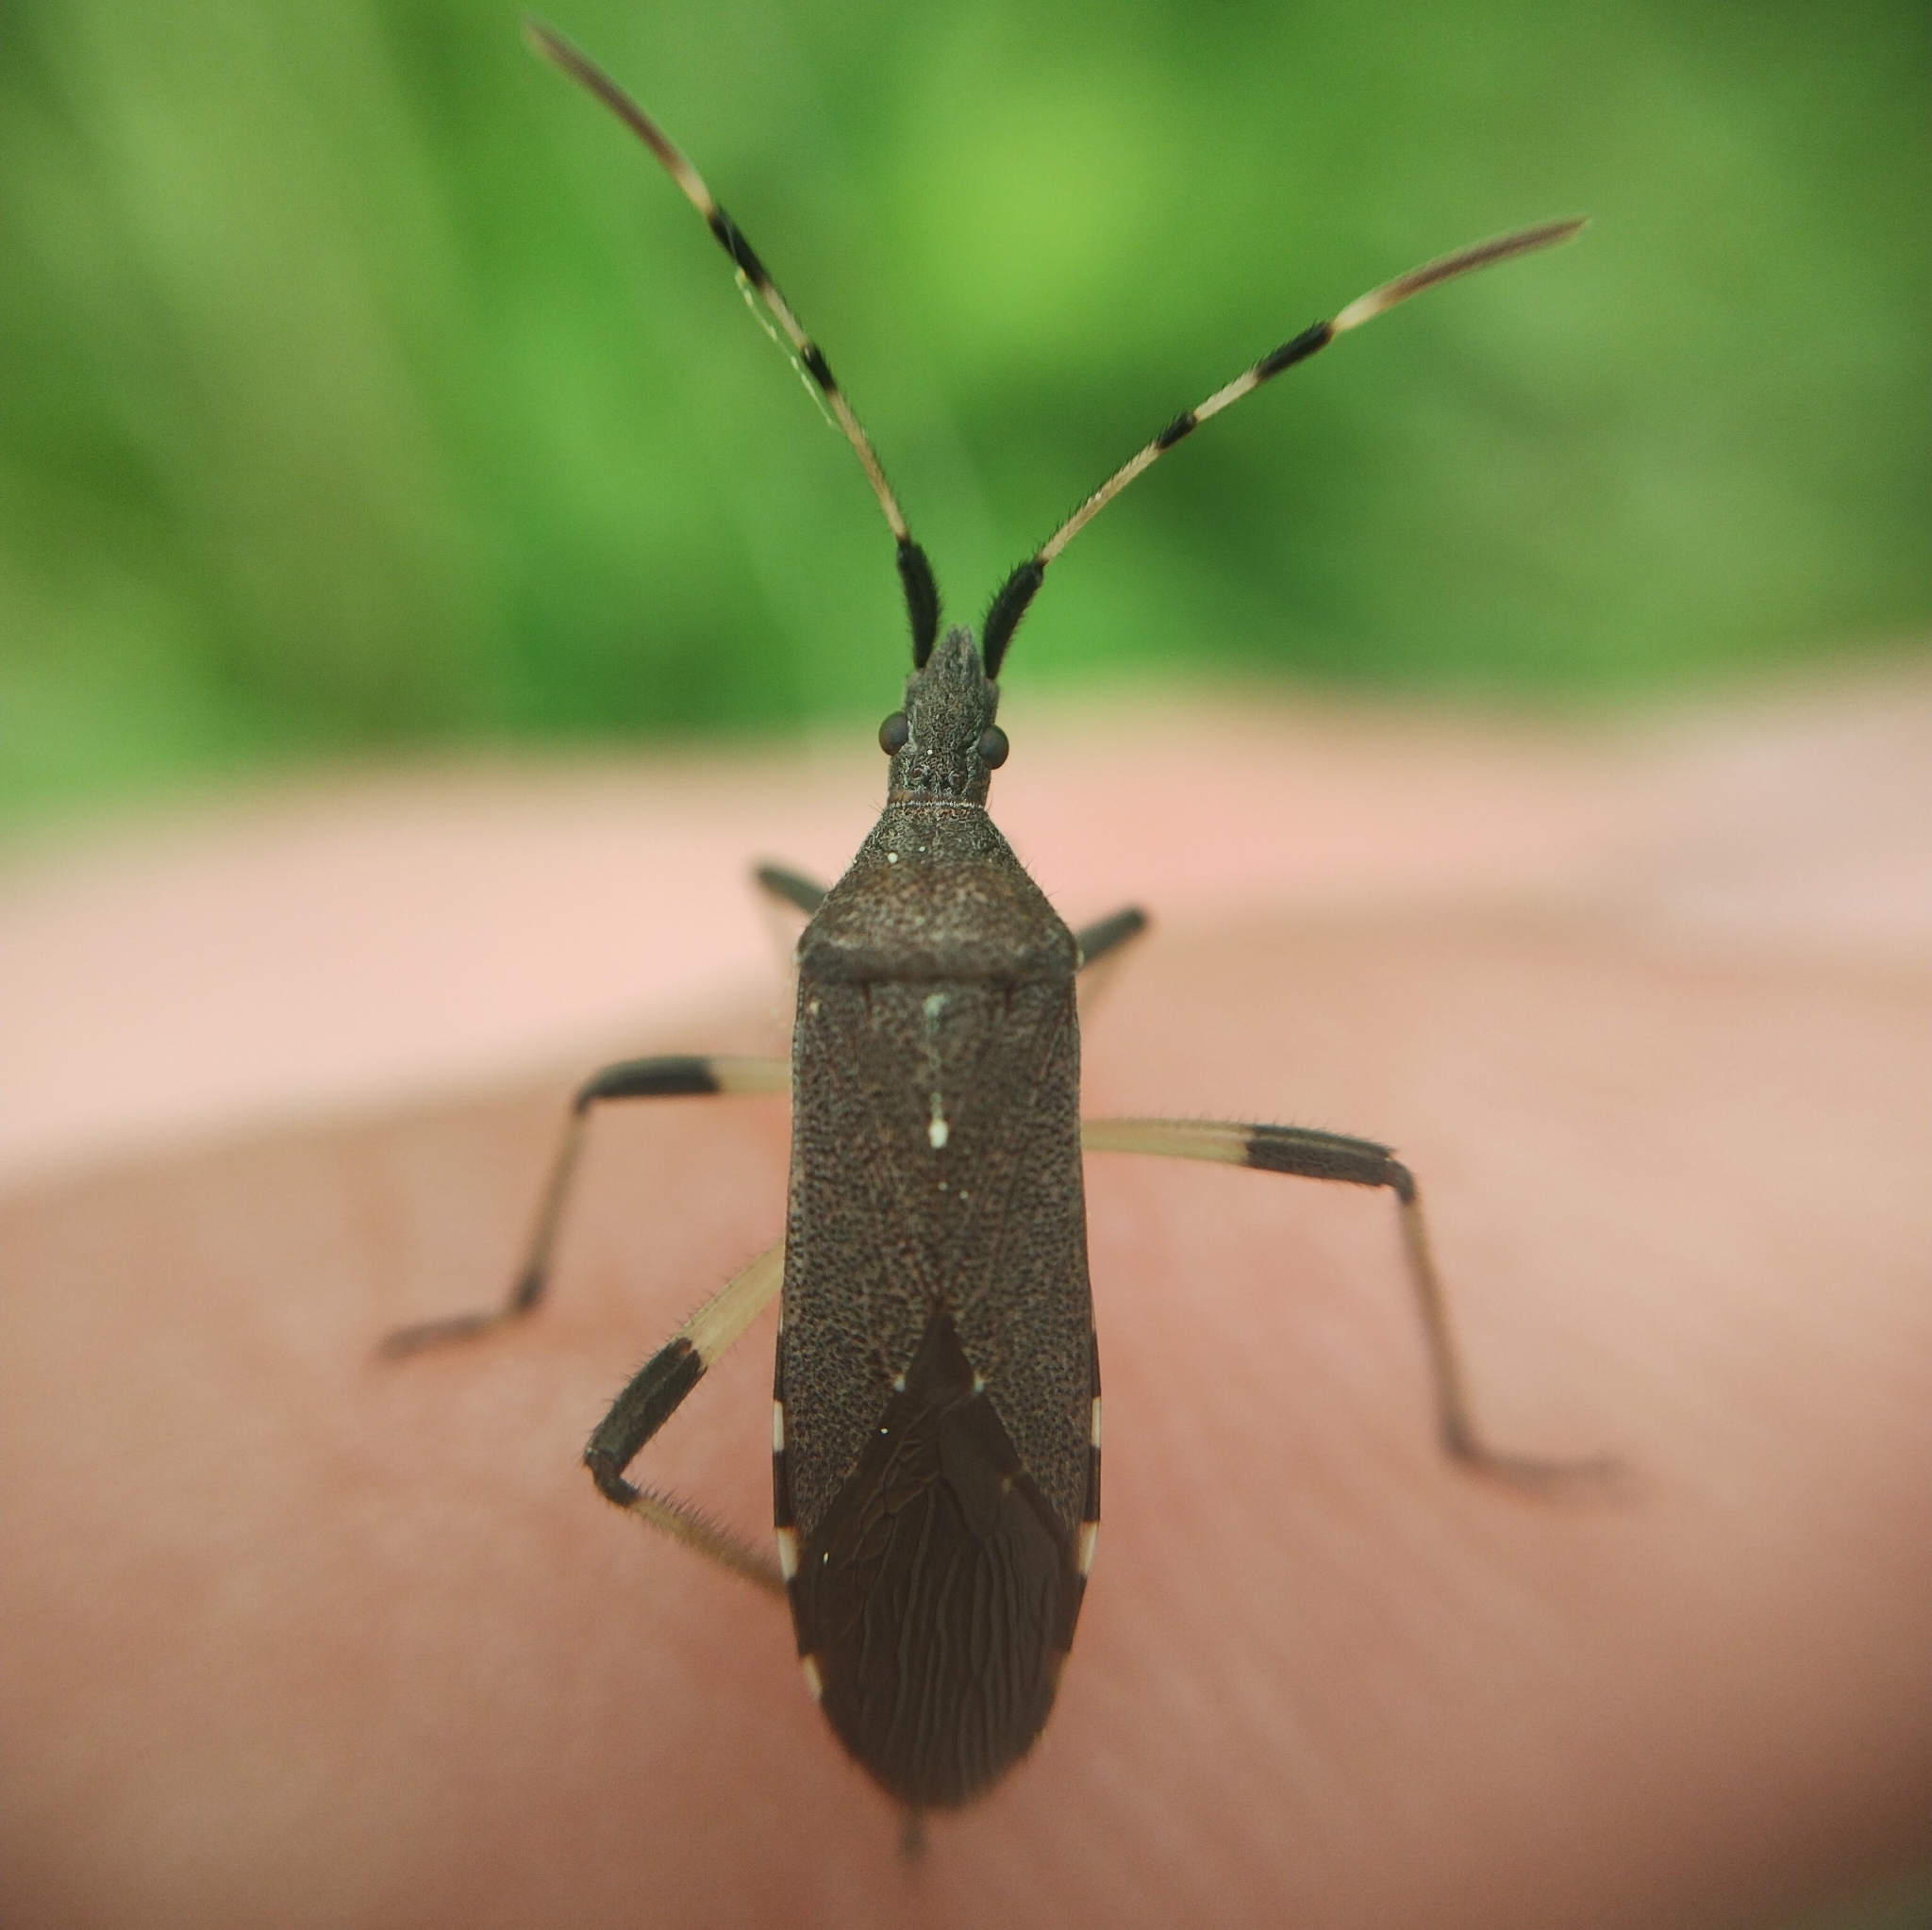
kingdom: Animalia
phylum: Arthropoda
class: Insecta
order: Hemiptera
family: Stenocephalidae
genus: Dicranocephalus
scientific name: Dicranocephalus albipes
